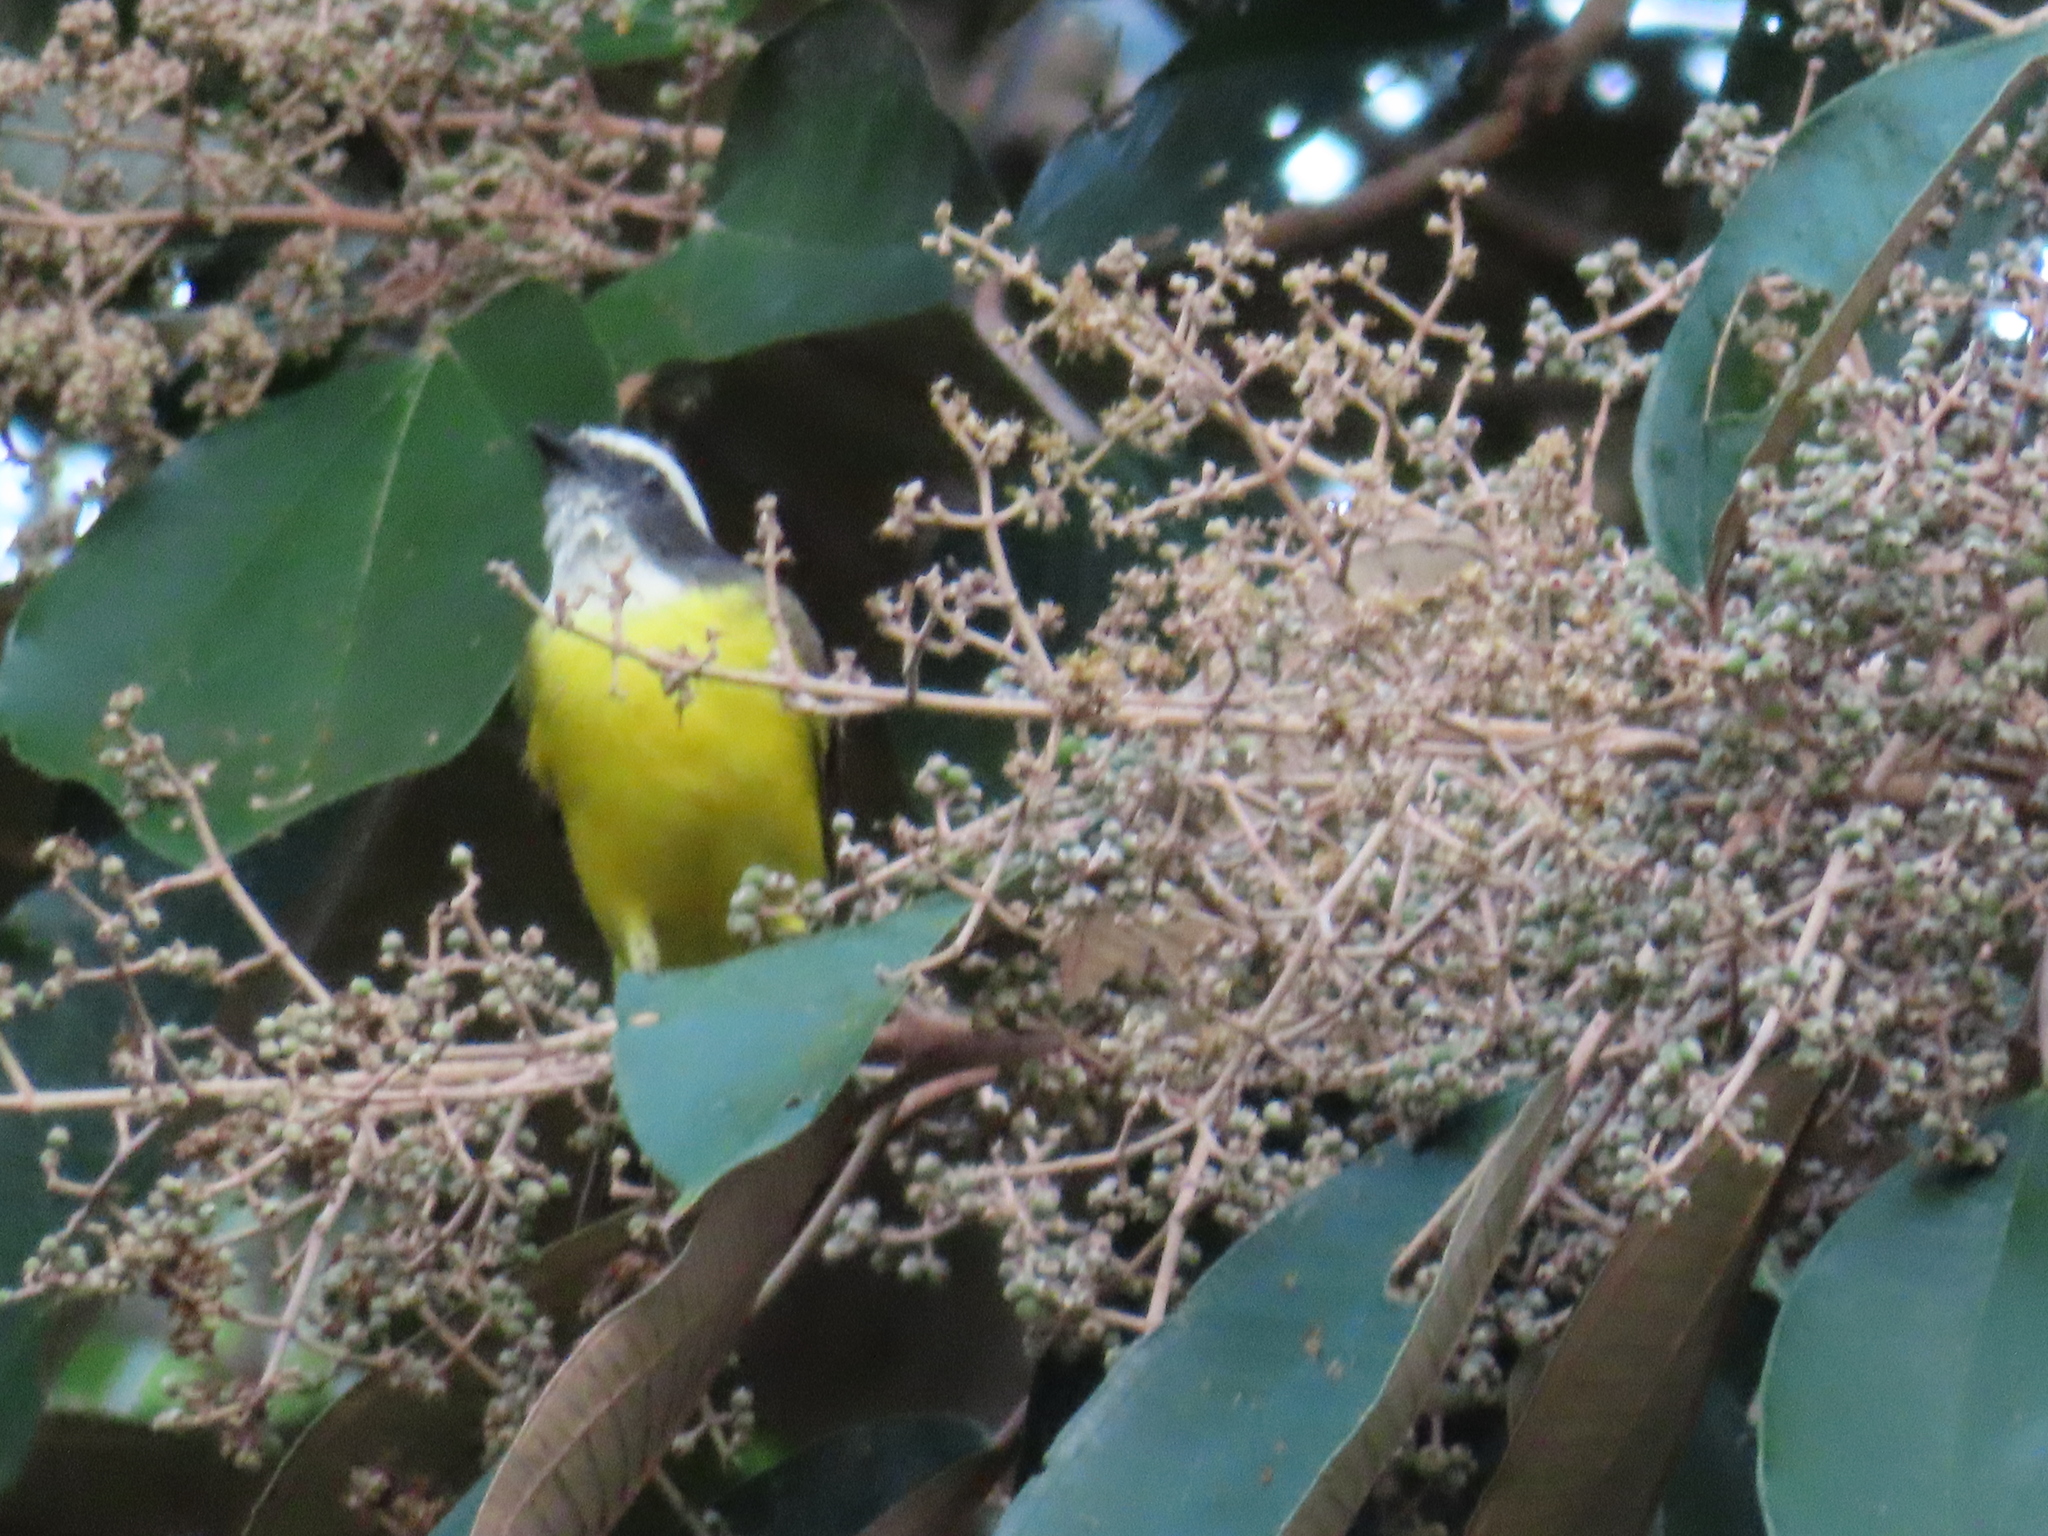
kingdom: Animalia
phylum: Chordata
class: Aves
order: Passeriformes
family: Tyrannidae
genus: Myiozetetes
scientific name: Myiozetetes similis
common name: Social flycatcher
